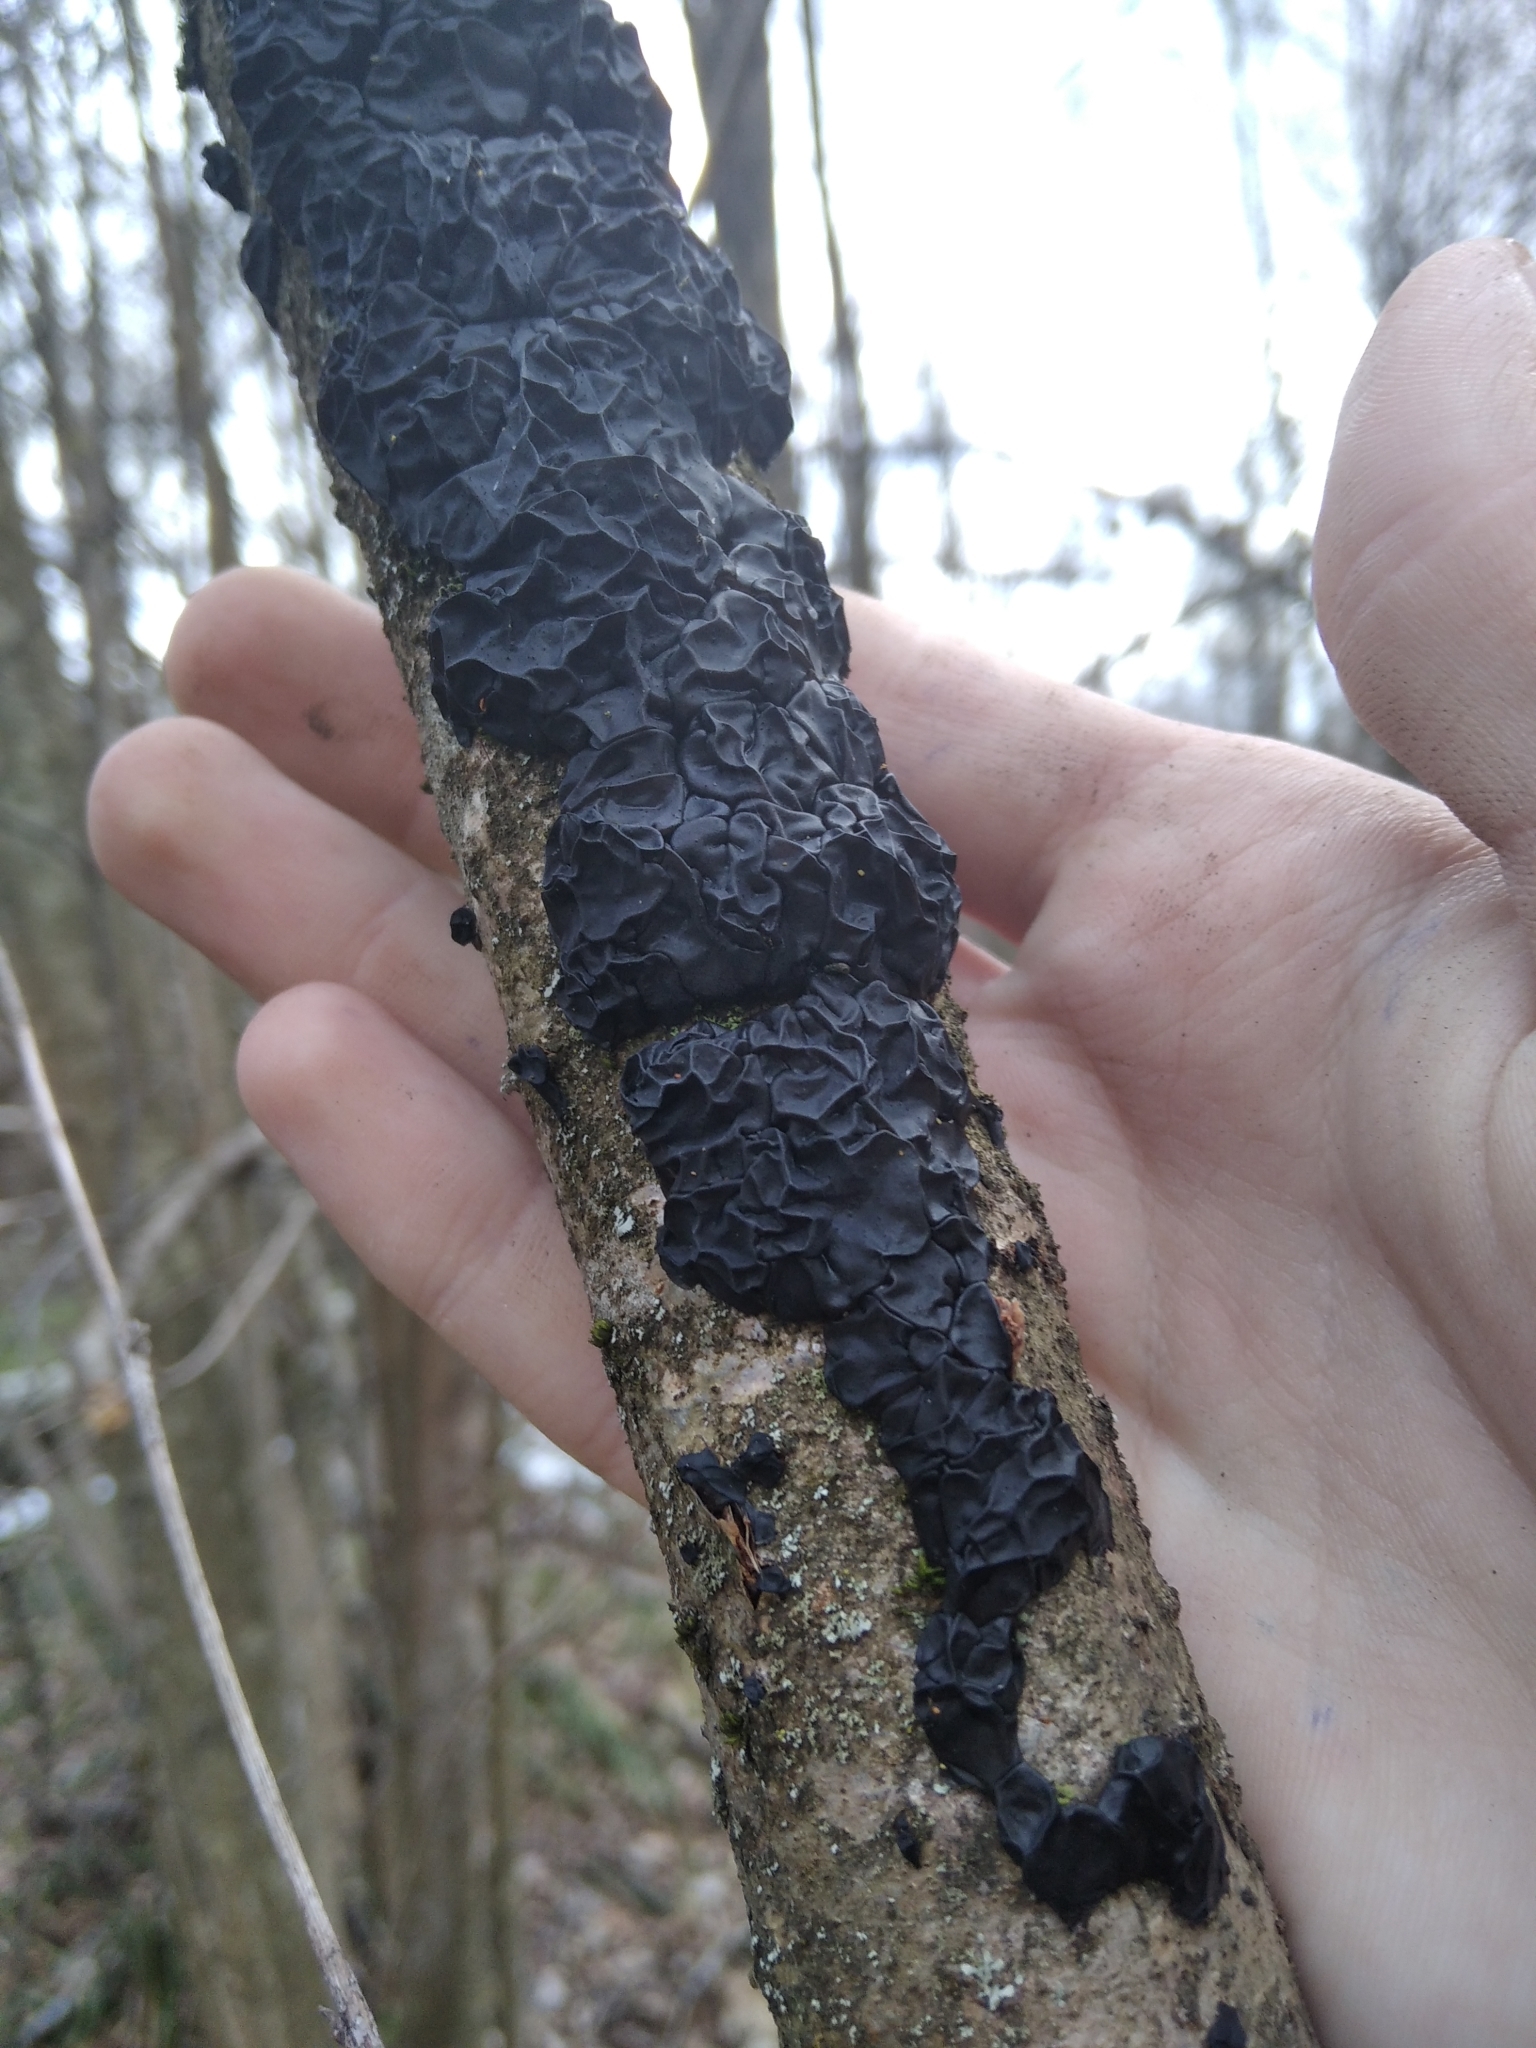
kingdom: Fungi
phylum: Basidiomycota
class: Agaricomycetes
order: Auriculariales
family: Auriculariaceae
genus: Exidia
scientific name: Exidia glandulosa
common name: Witches' butter
